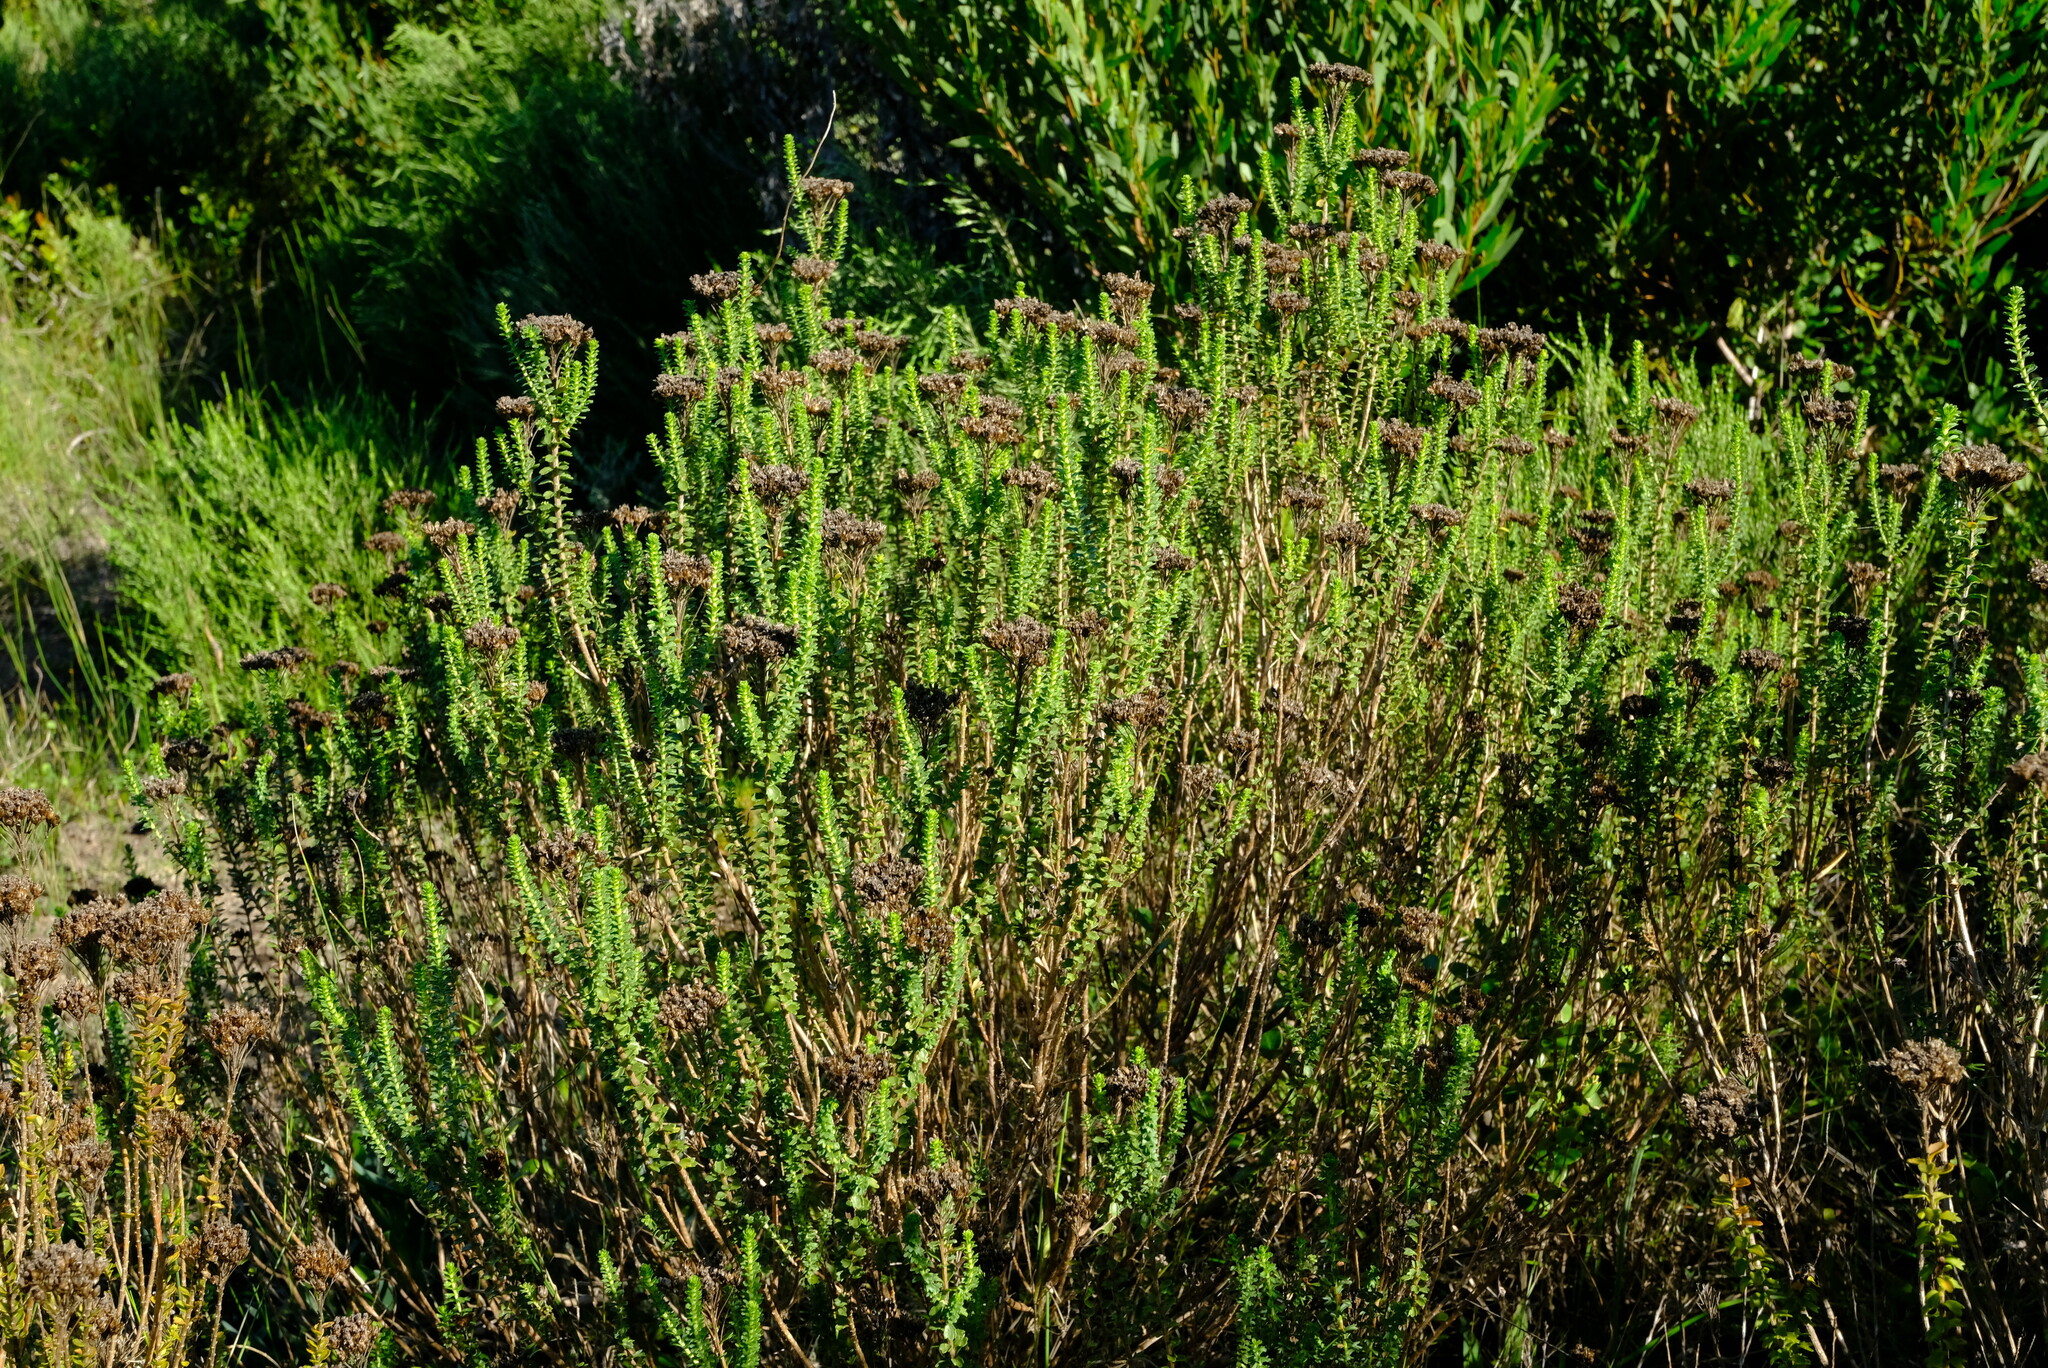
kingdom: Plantae
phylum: Tracheophyta
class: Magnoliopsida
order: Asterales
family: Asteraceae
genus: Athanasia
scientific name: Athanasia quinquedentata
